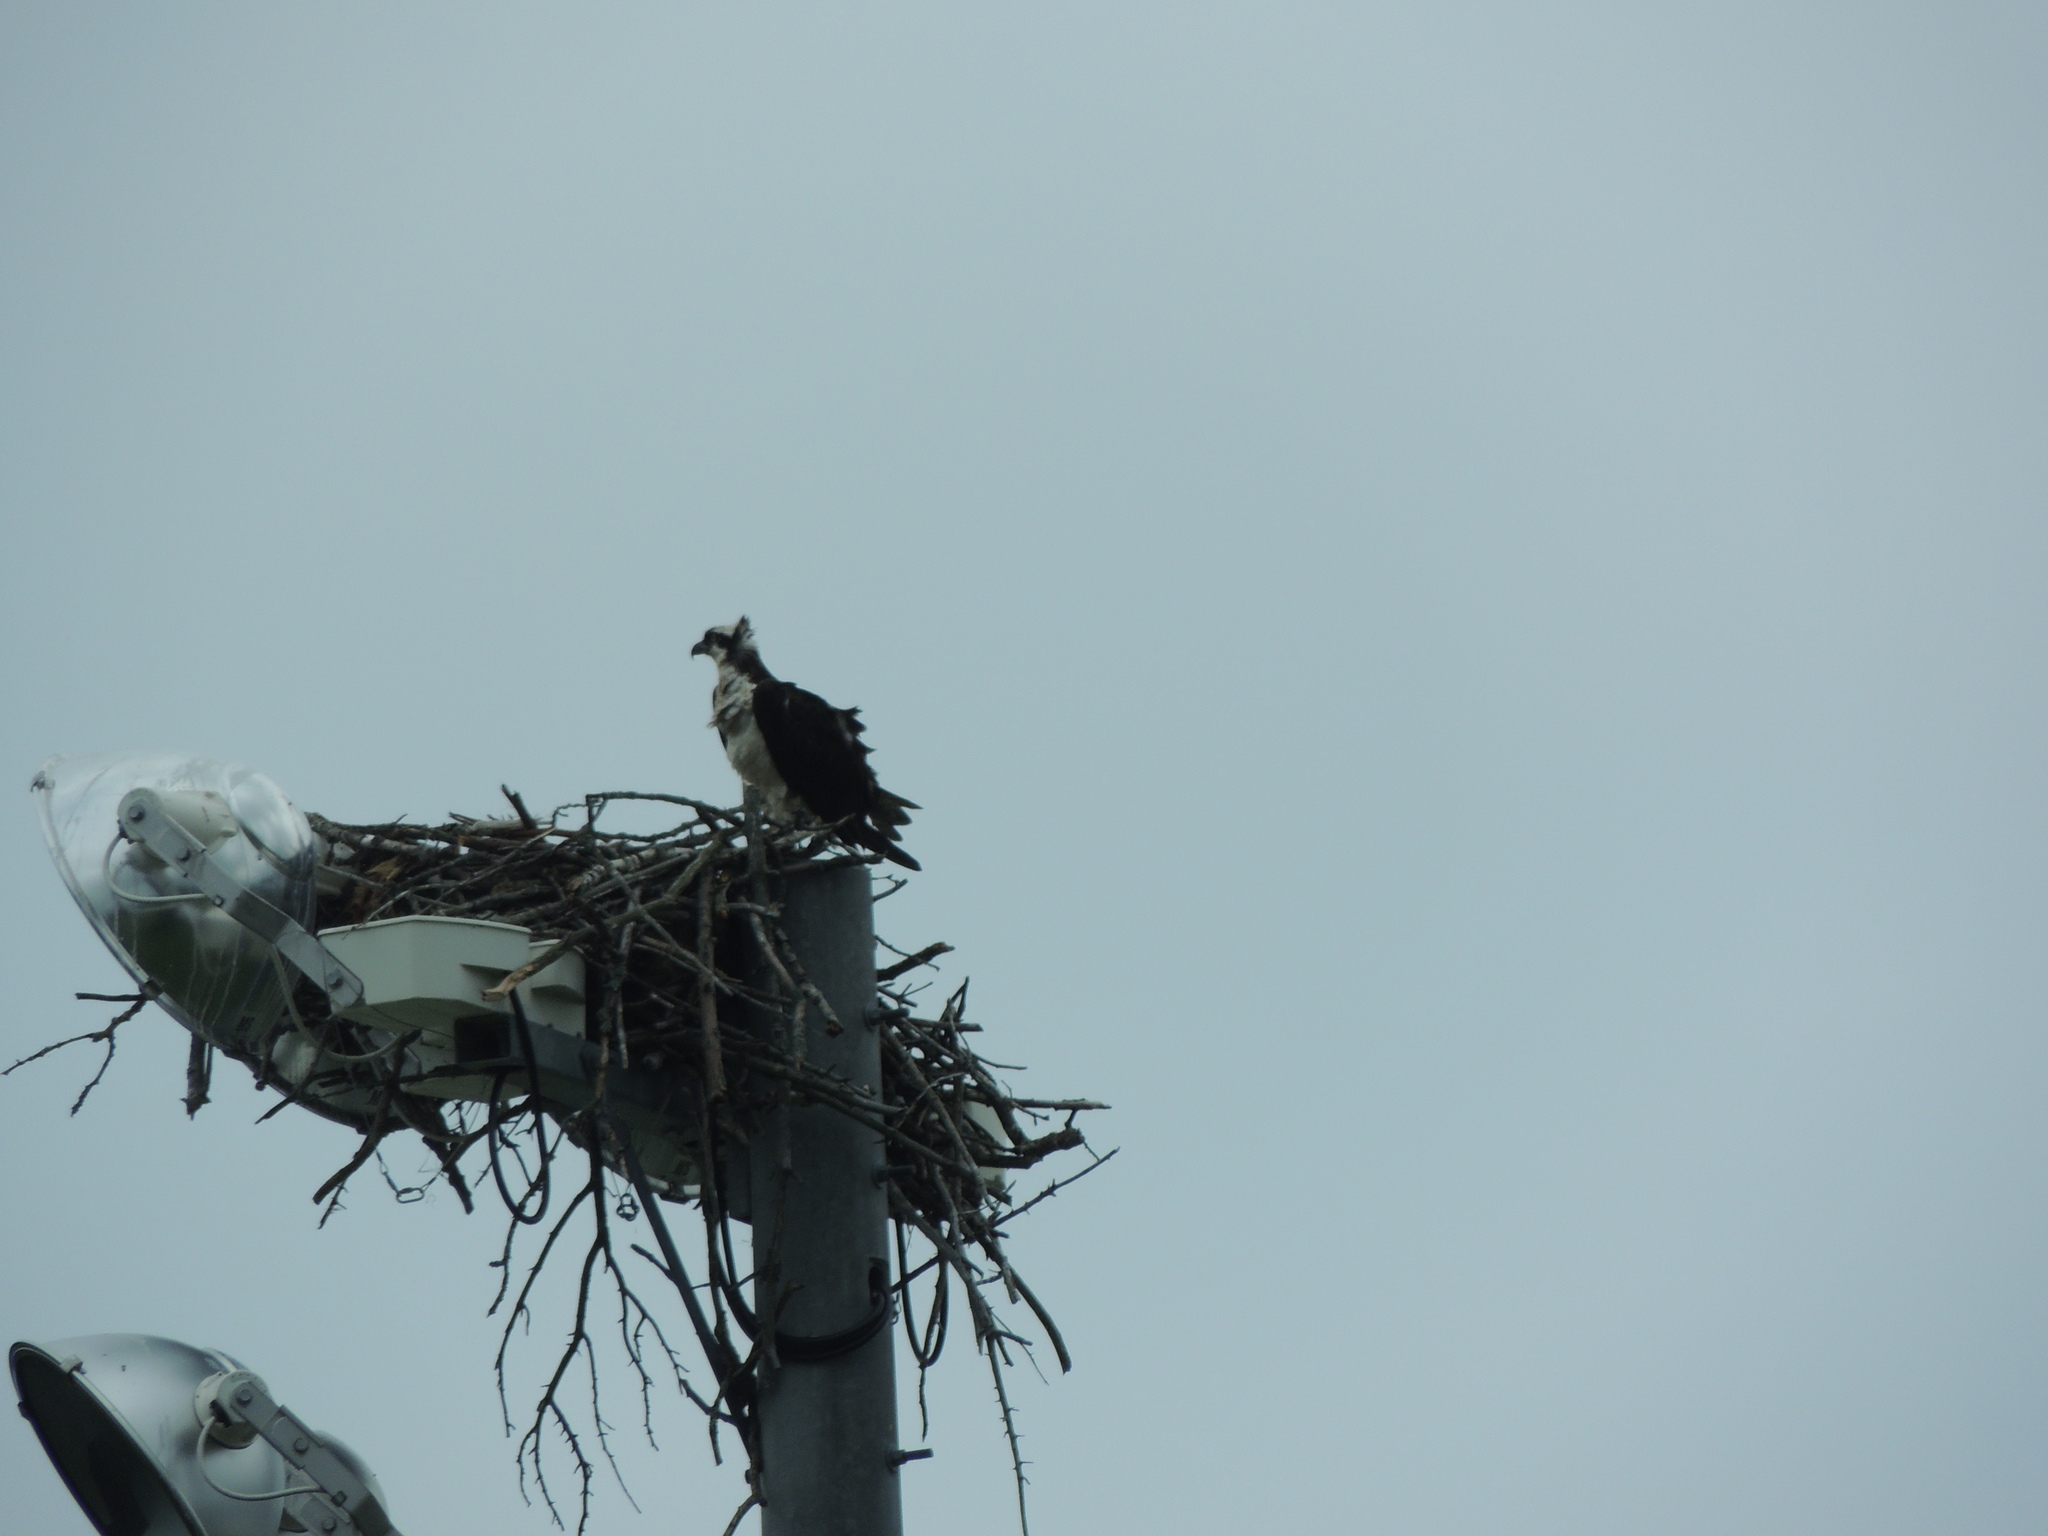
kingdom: Animalia
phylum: Chordata
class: Aves
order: Accipitriformes
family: Pandionidae
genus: Pandion
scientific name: Pandion haliaetus
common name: Osprey
